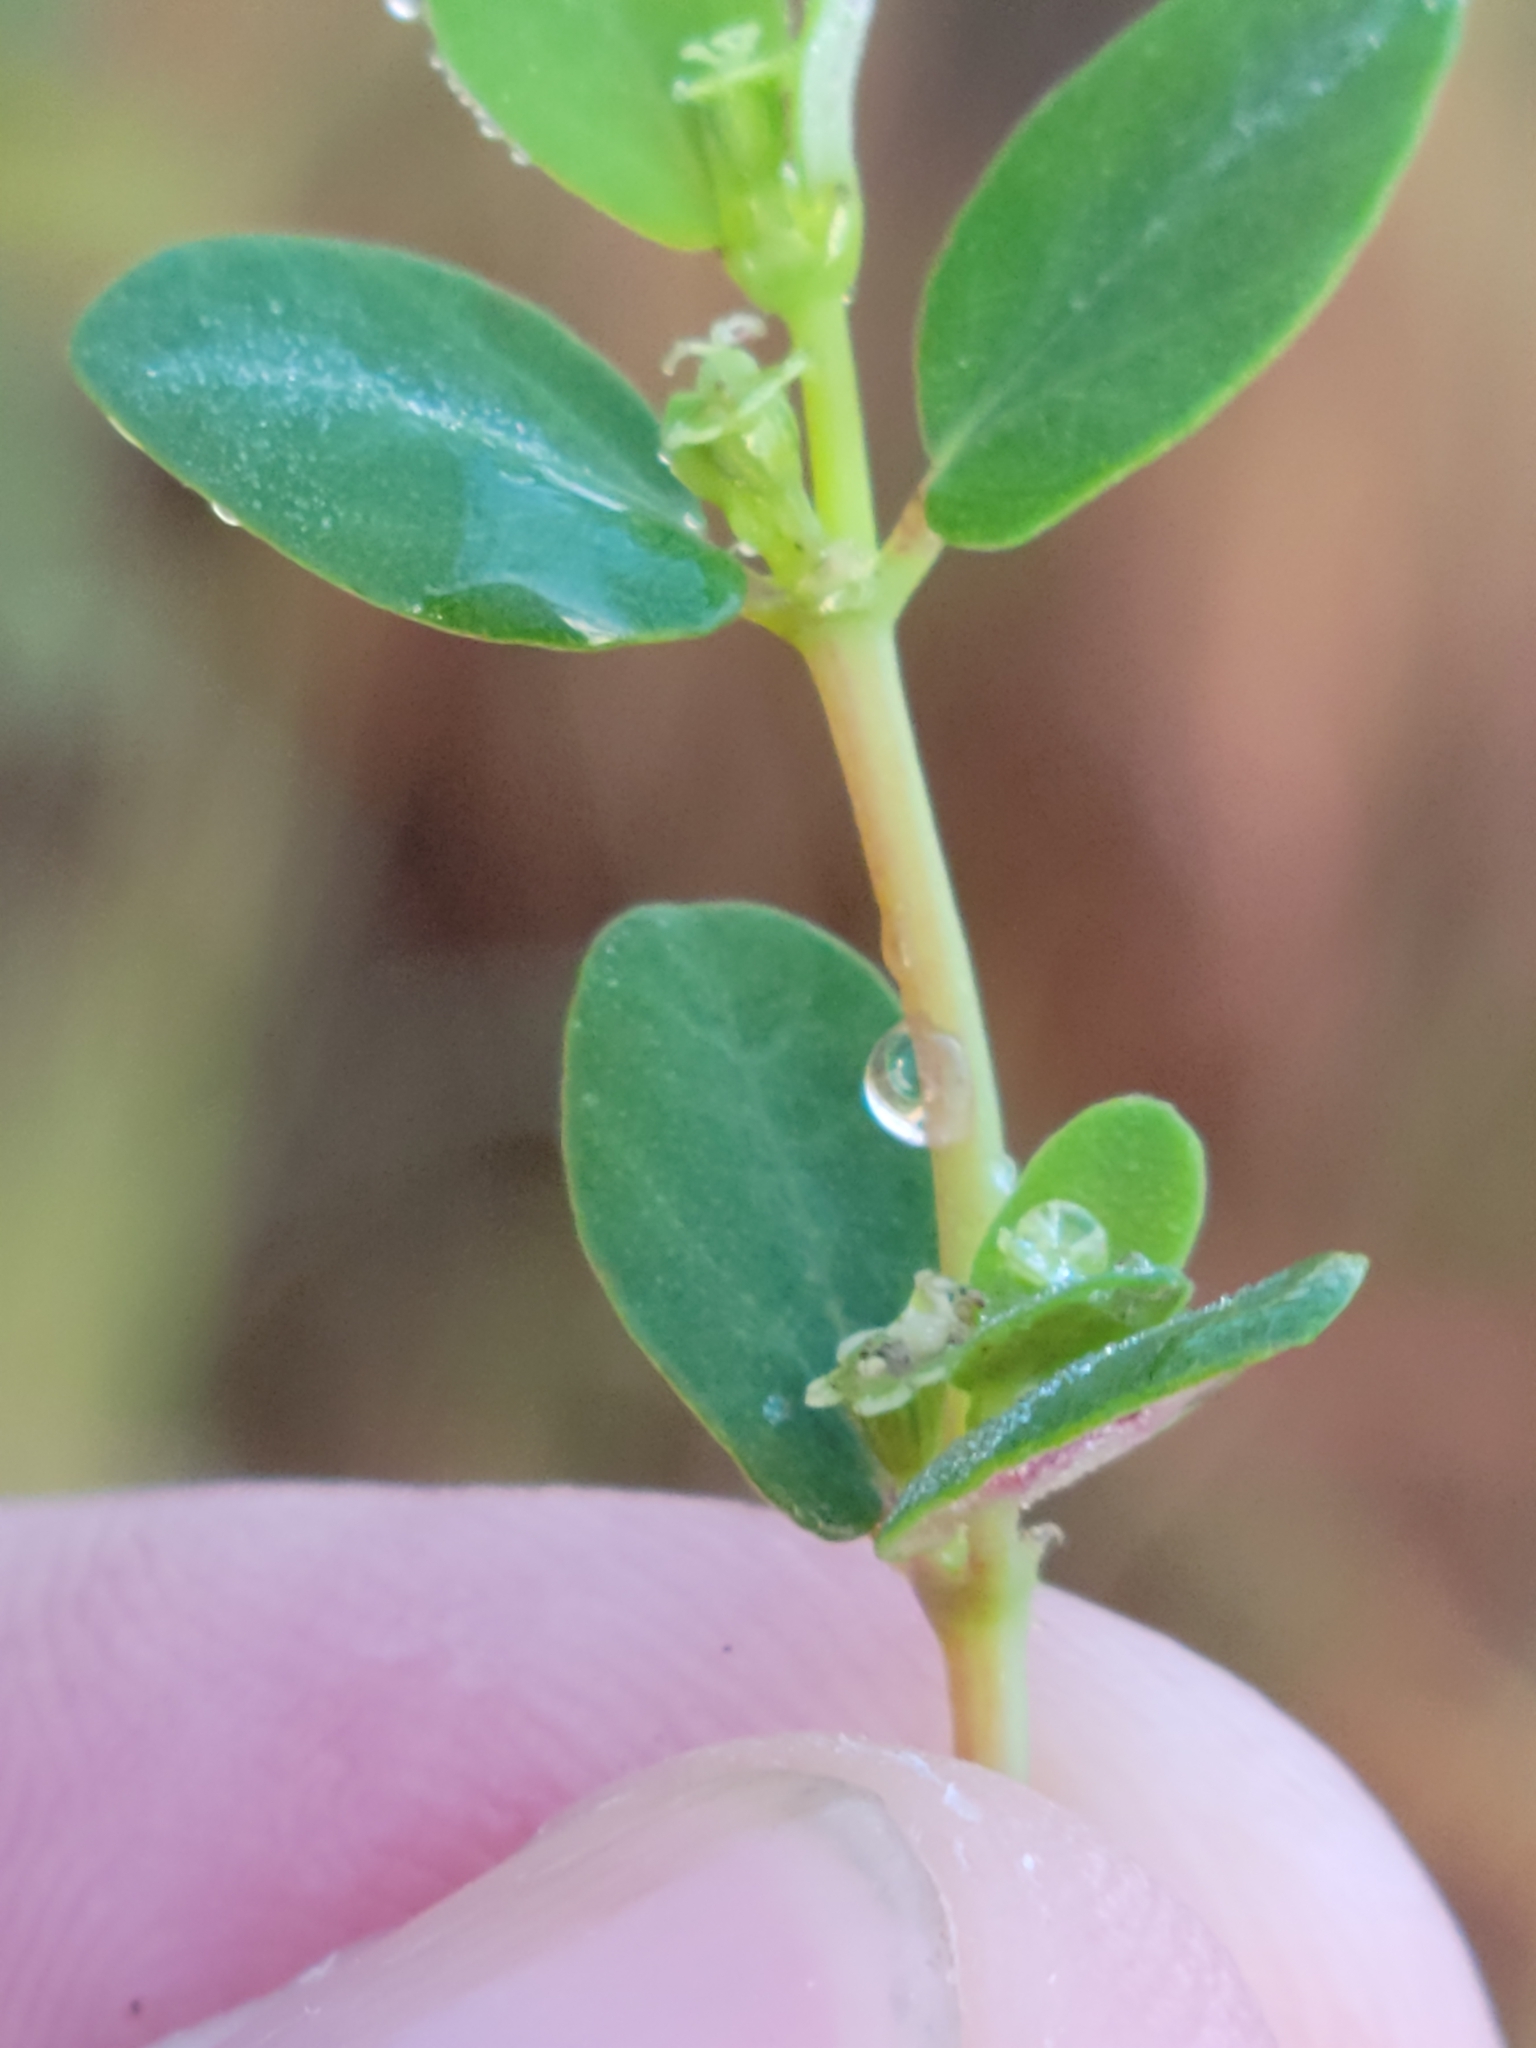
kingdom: Plantae
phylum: Tracheophyta
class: Magnoliopsida
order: Malpighiales
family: Euphorbiaceae
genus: Euphorbia
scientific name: Euphorbia porteriana
